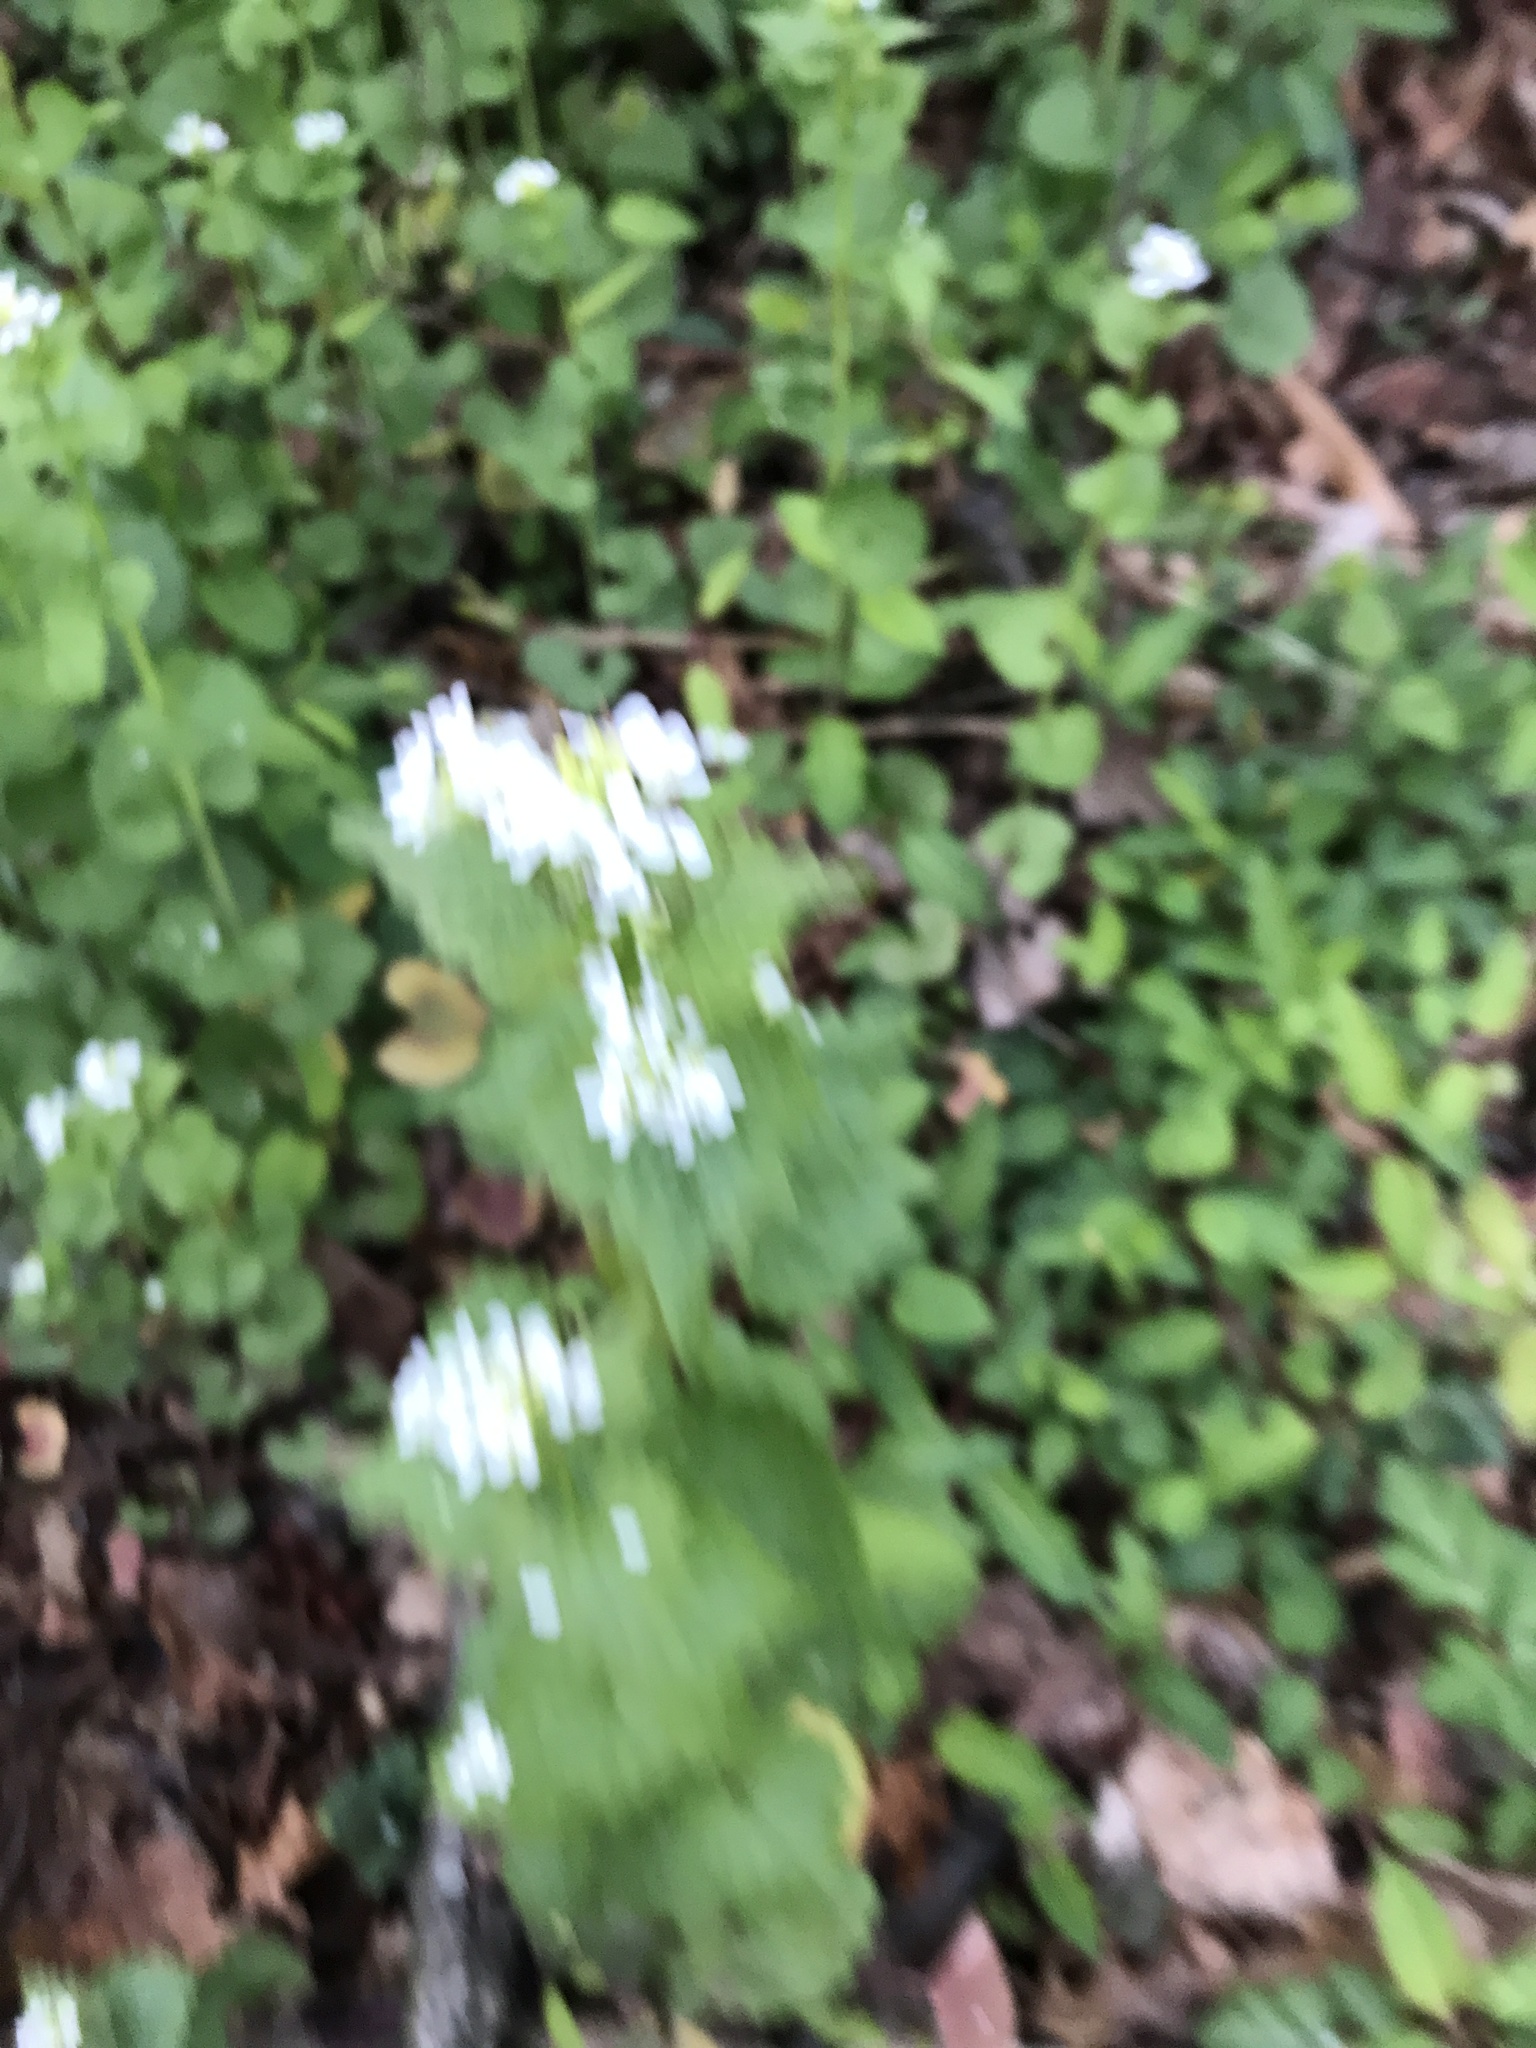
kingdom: Plantae
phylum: Tracheophyta
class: Magnoliopsida
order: Brassicales
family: Brassicaceae
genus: Alliaria
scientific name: Alliaria petiolata
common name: Garlic mustard
